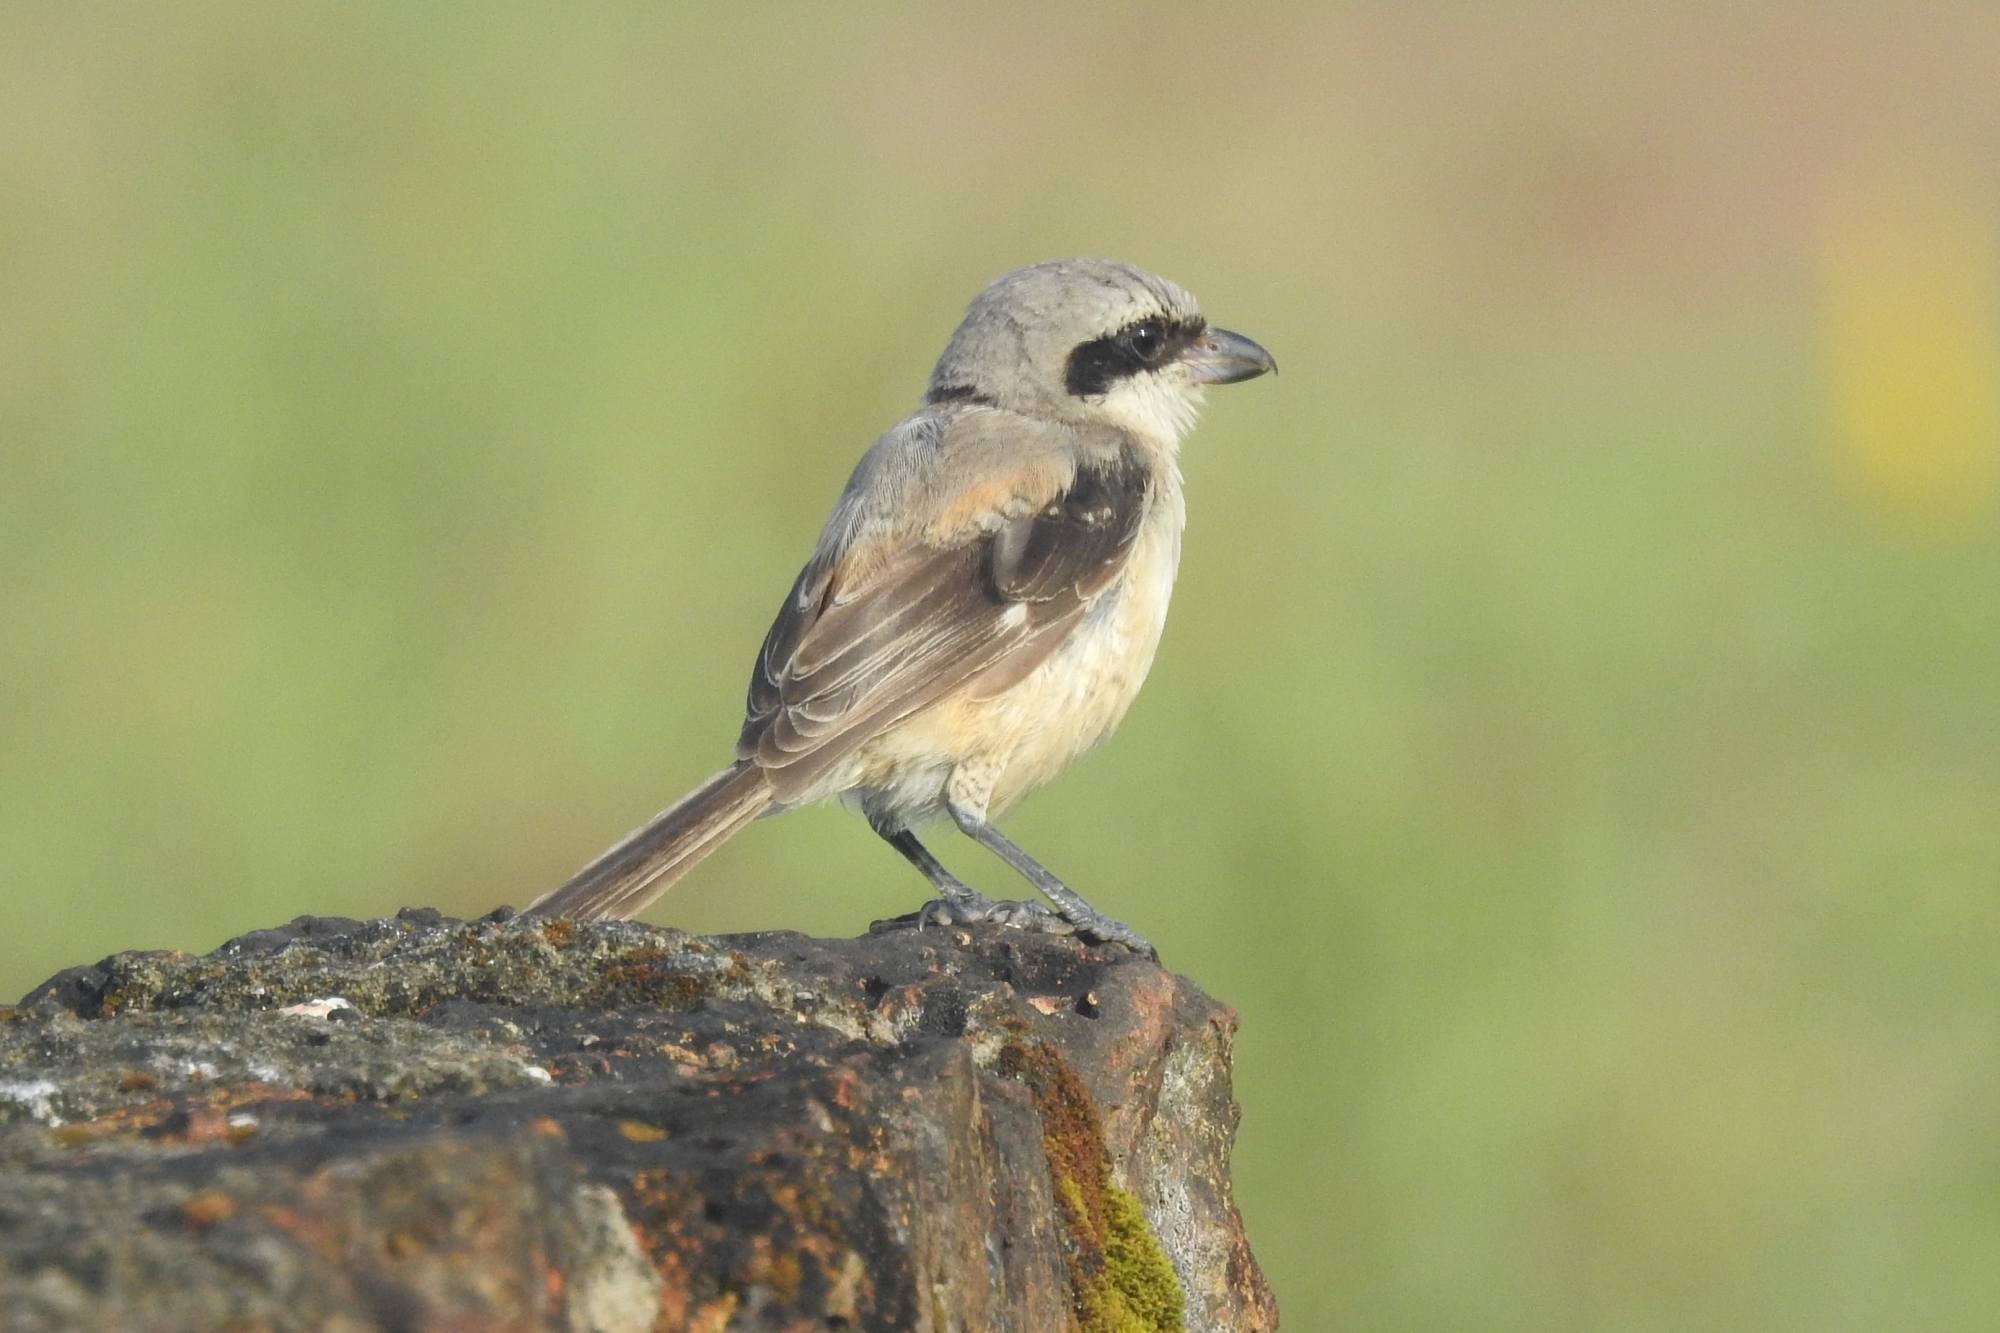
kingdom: Animalia
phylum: Chordata
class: Aves
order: Passeriformes
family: Laniidae
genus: Lanius
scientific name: Lanius schach
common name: Long-tailed shrike
